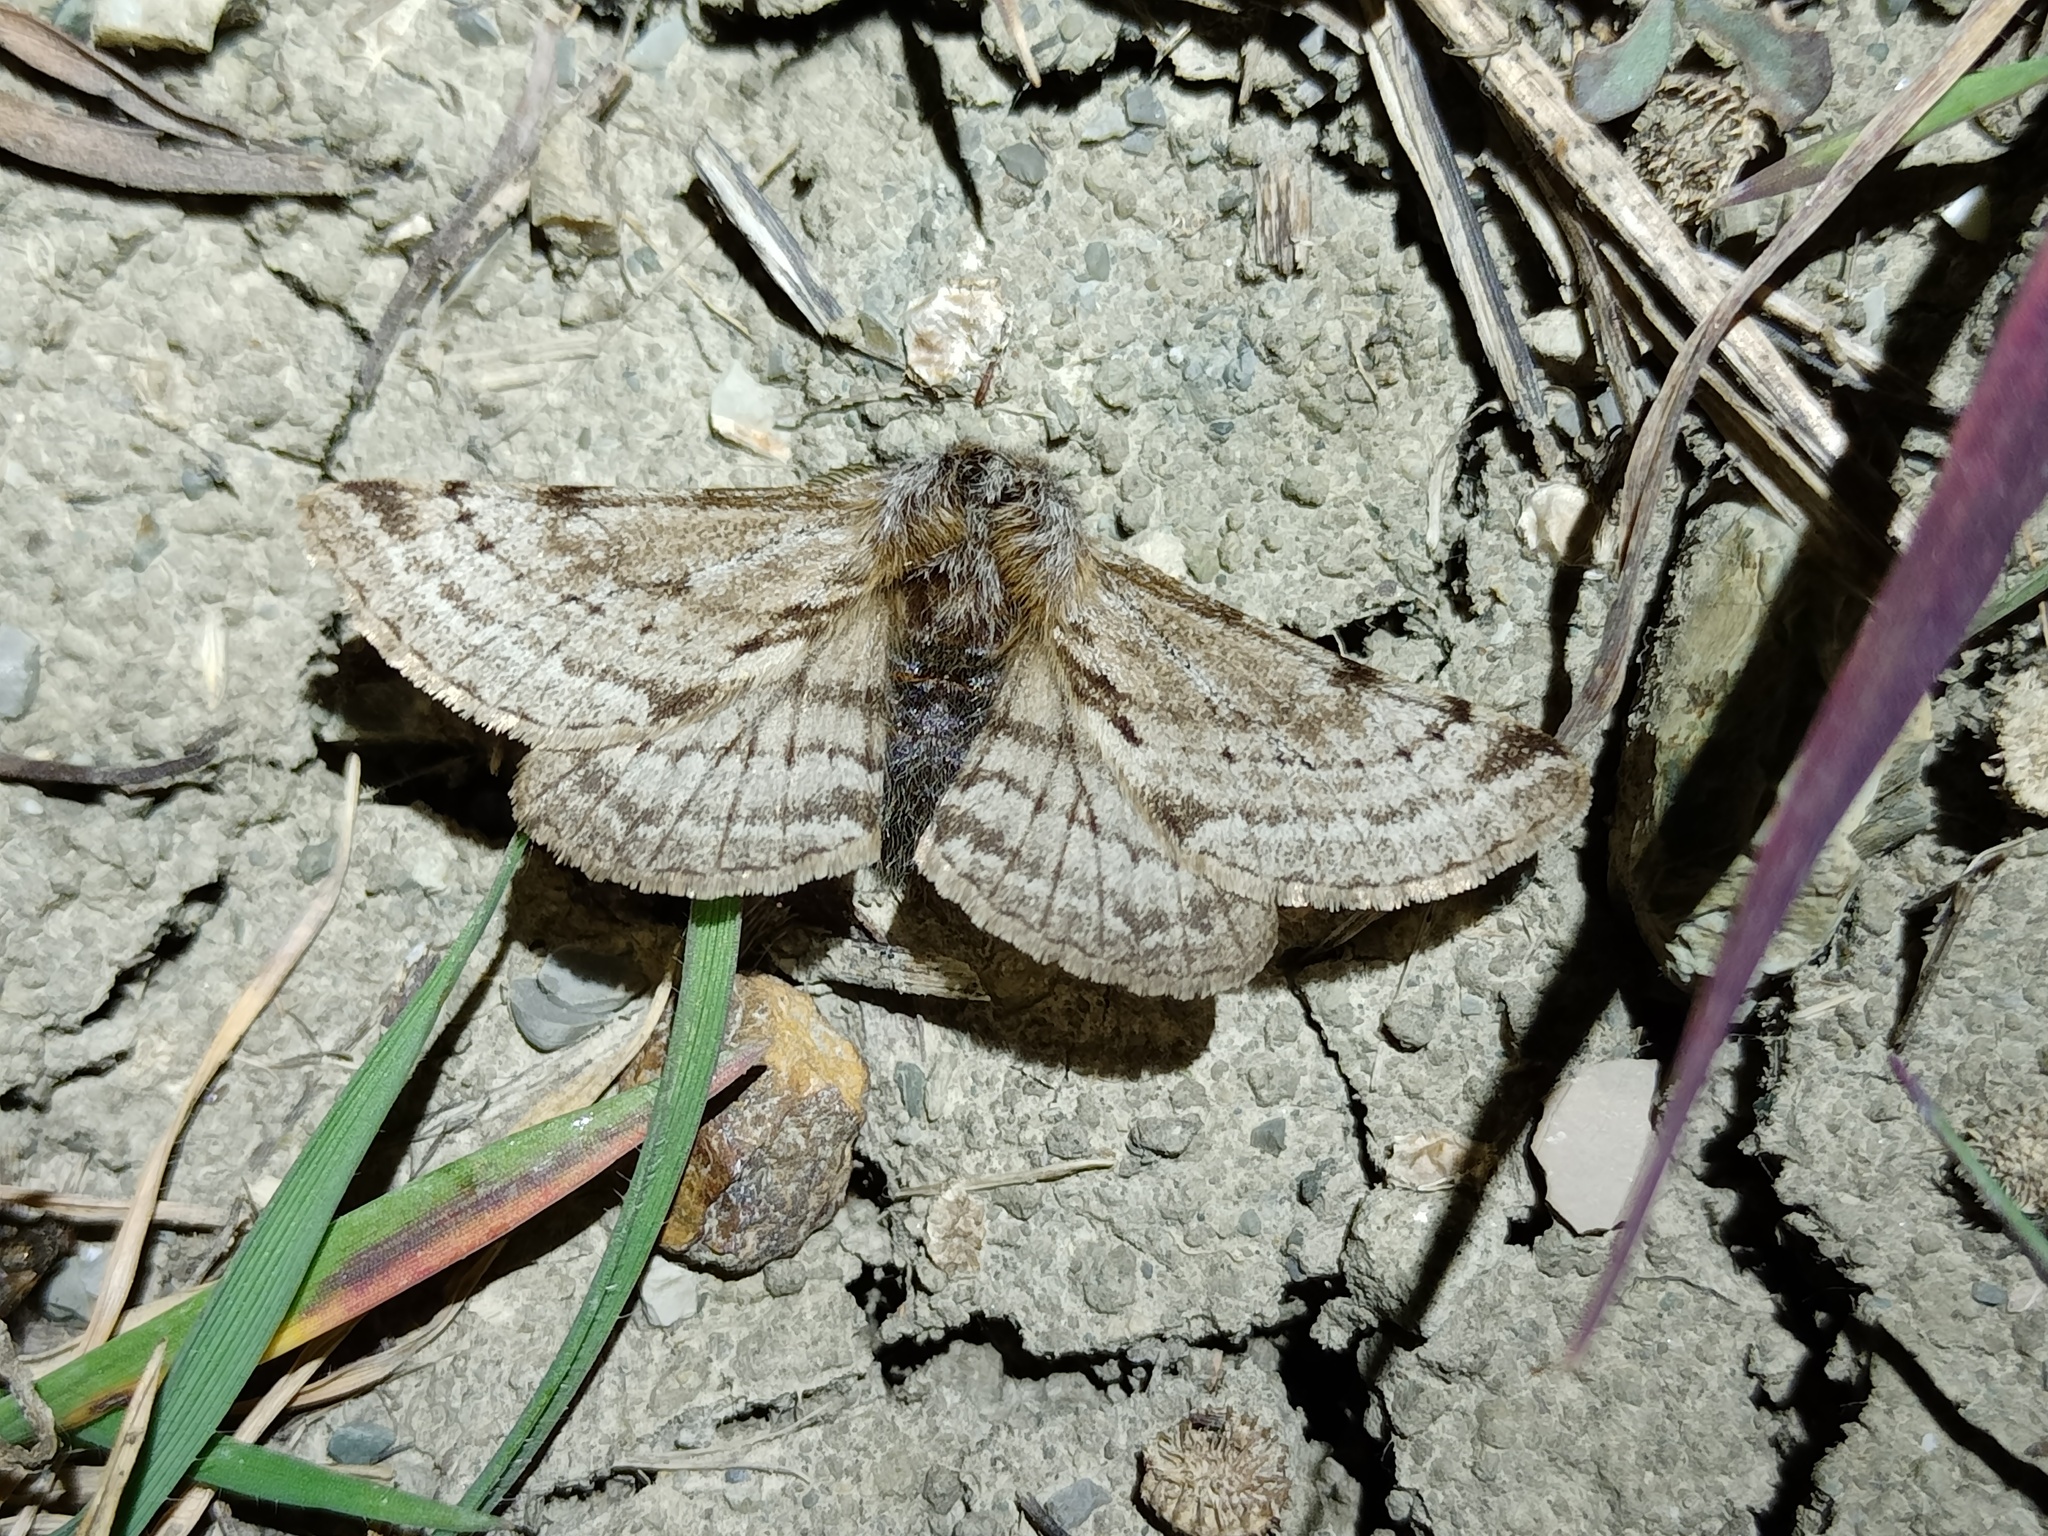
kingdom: Animalia
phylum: Arthropoda
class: Insecta
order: Lepidoptera
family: Geometridae
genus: Lycia
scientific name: Lycia florentina
